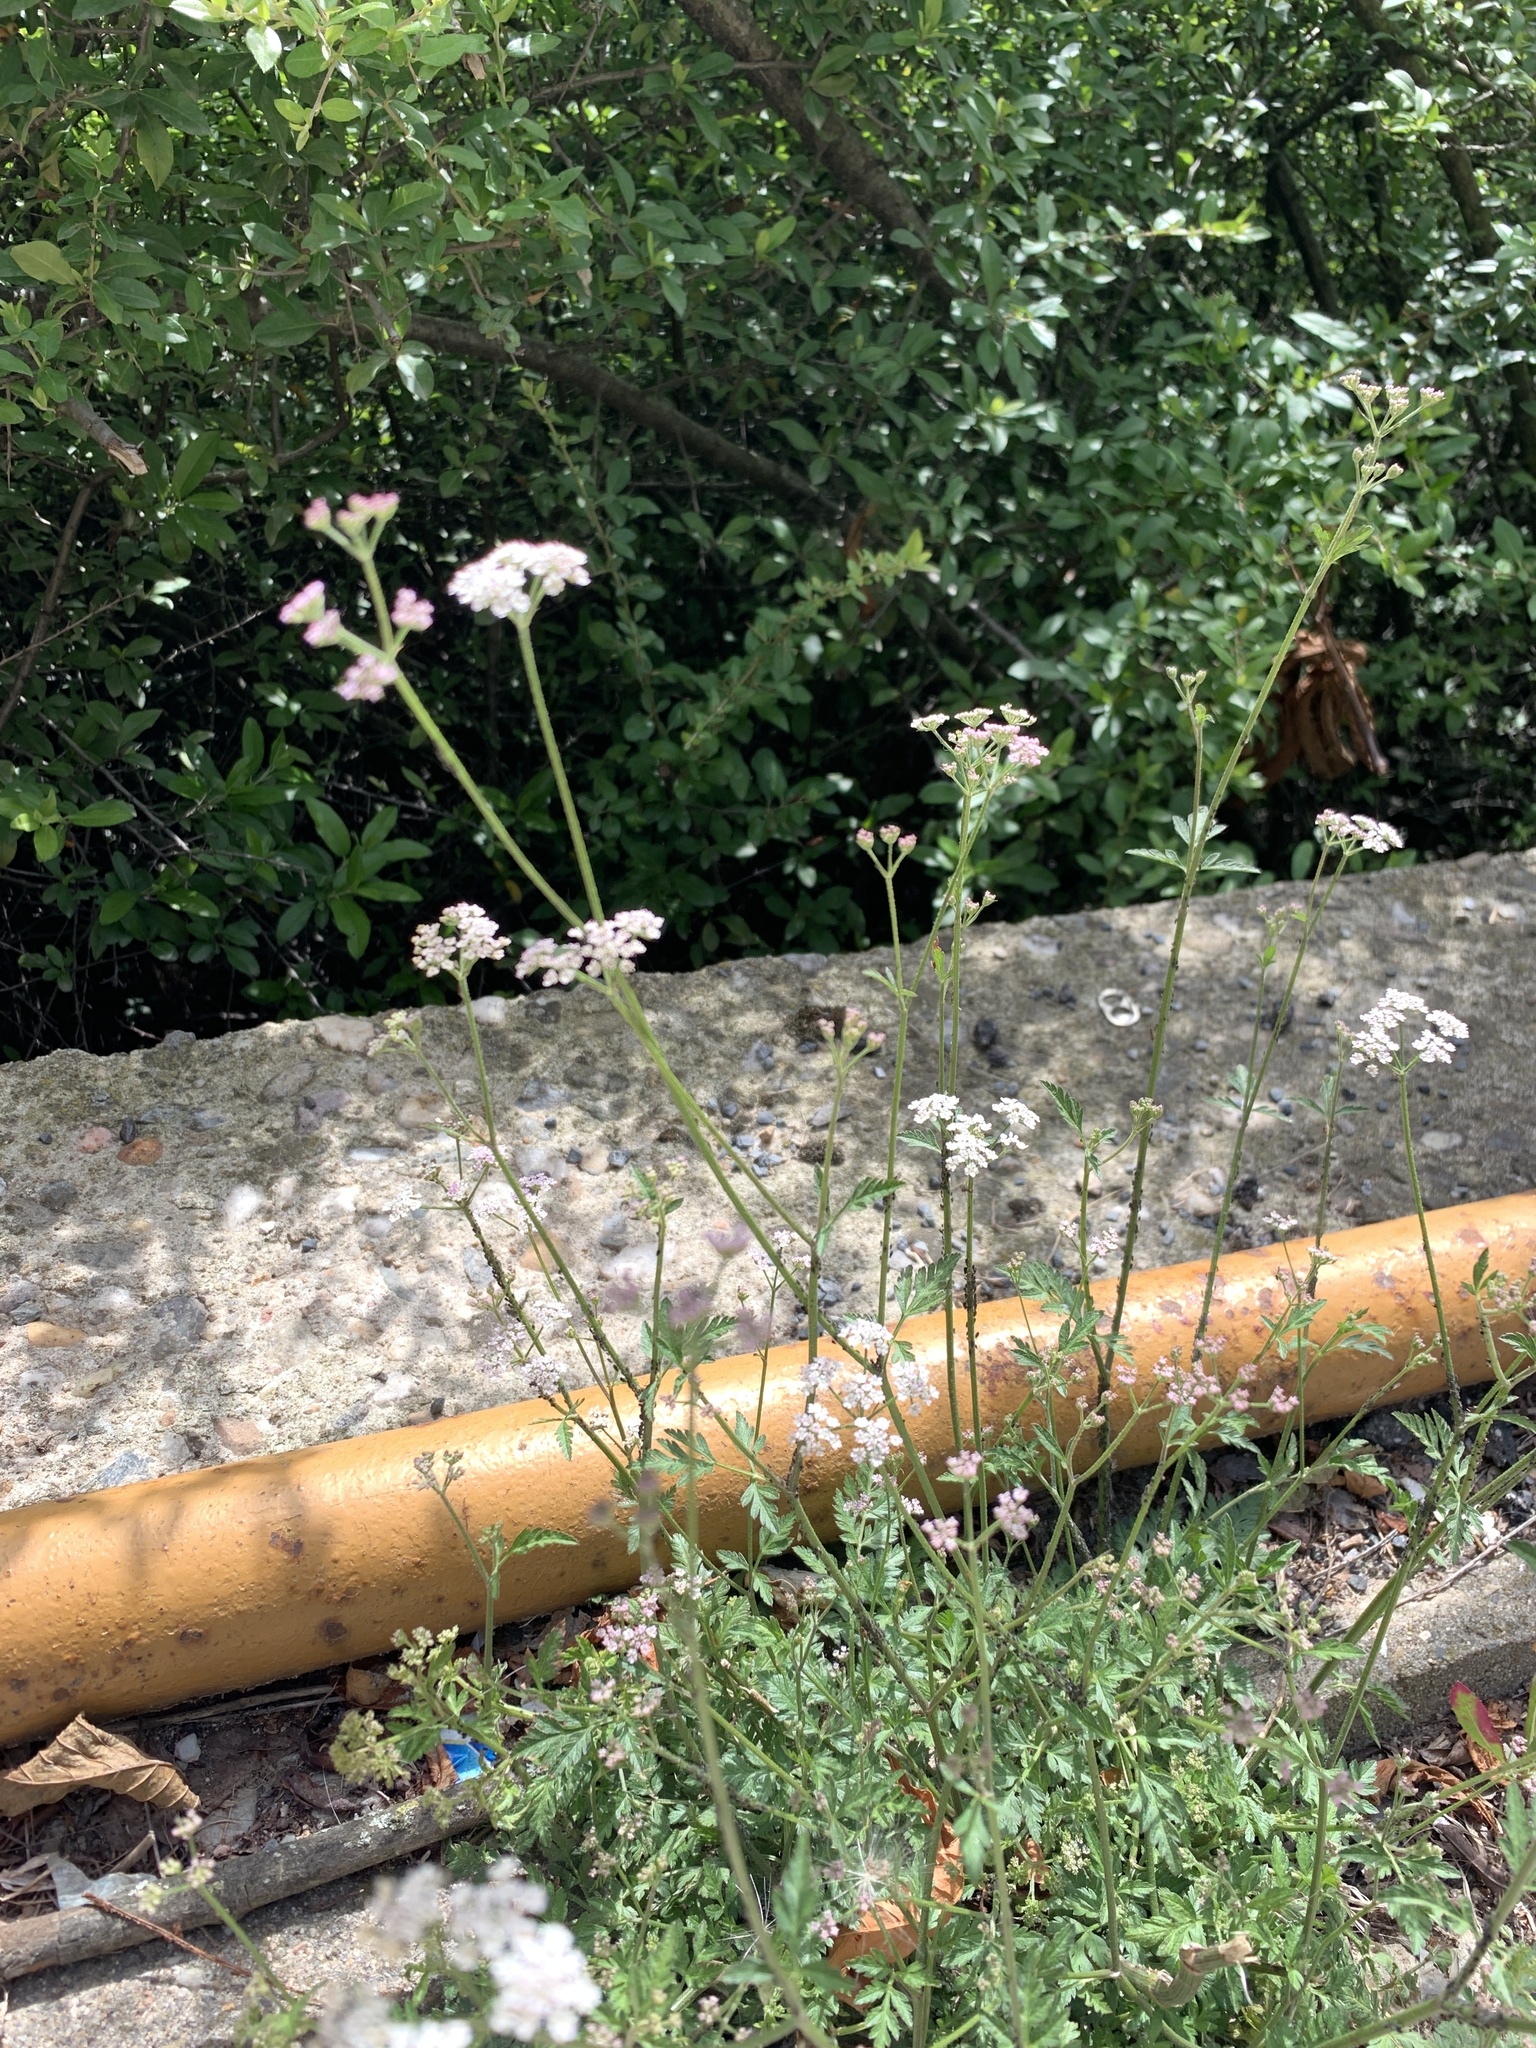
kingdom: Plantae
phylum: Tracheophyta
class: Magnoliopsida
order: Apiales
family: Apiaceae
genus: Torilis
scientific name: Torilis japonica
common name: Upright hedge-parsley
